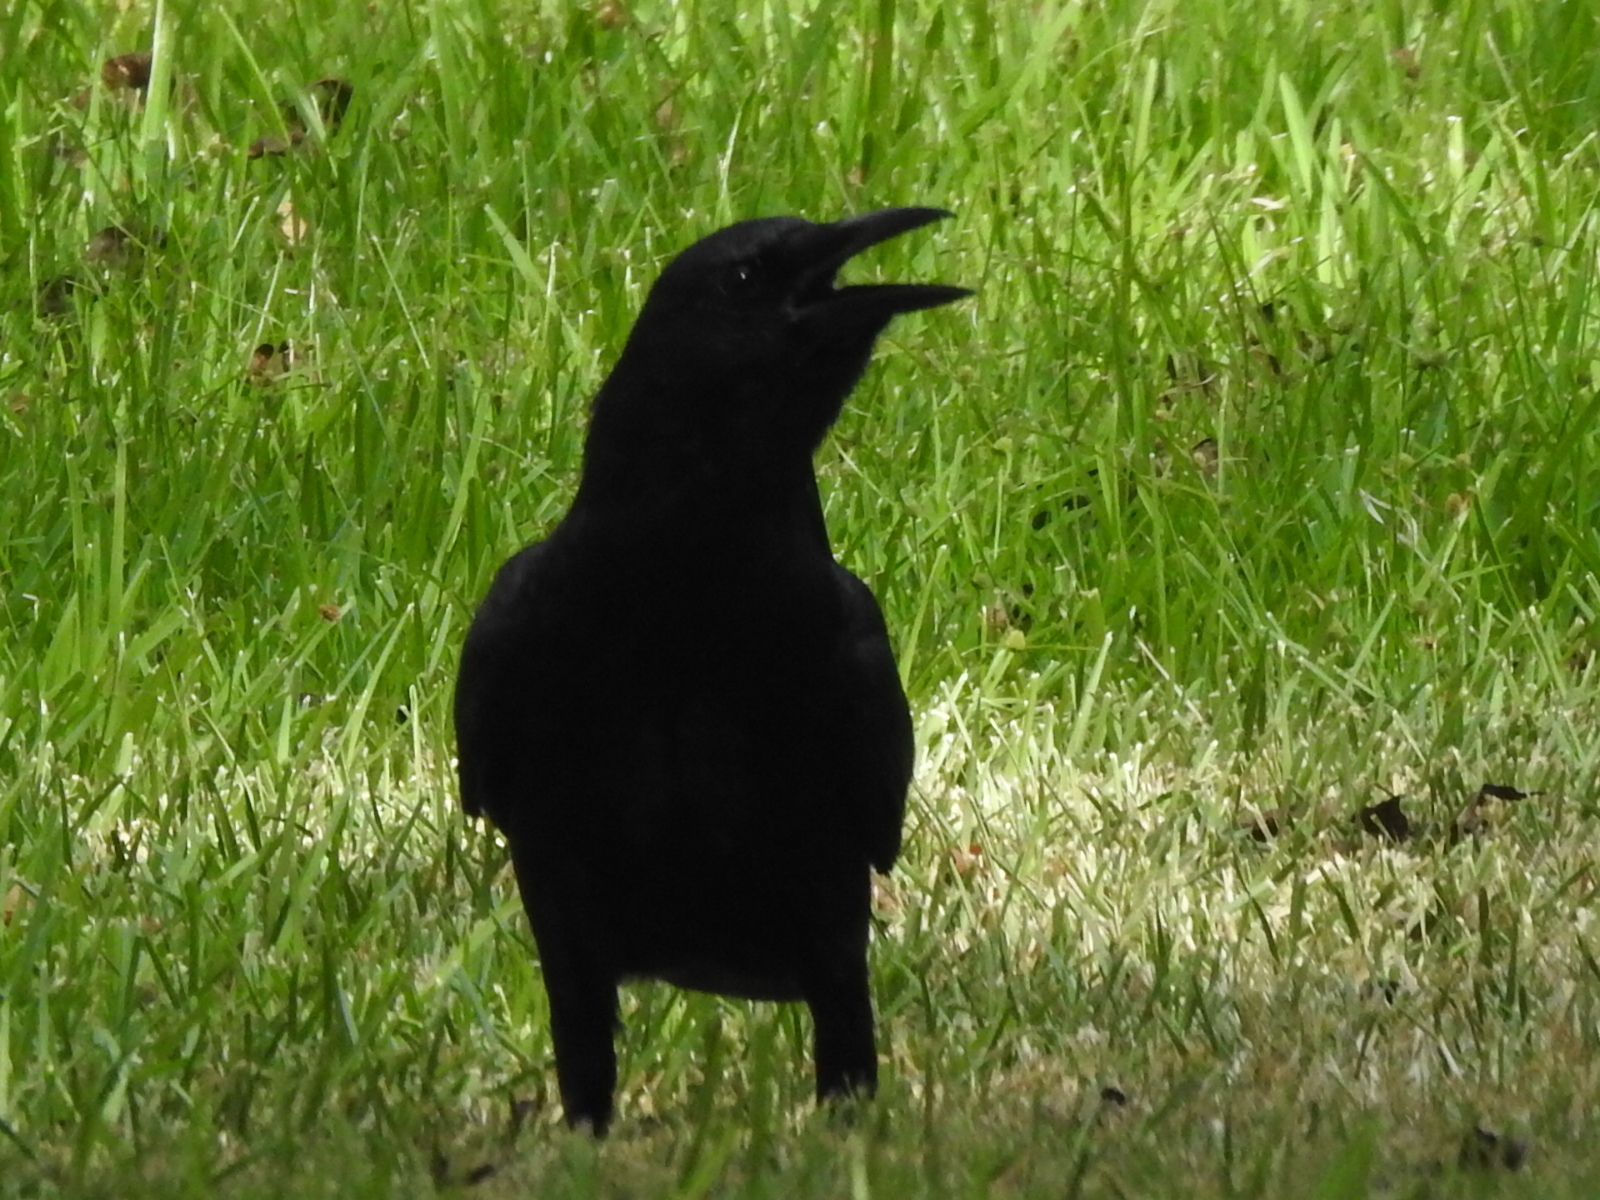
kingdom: Animalia
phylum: Chordata
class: Aves
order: Passeriformes
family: Corvidae
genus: Corvus
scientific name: Corvus brachyrhynchos
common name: American crow
